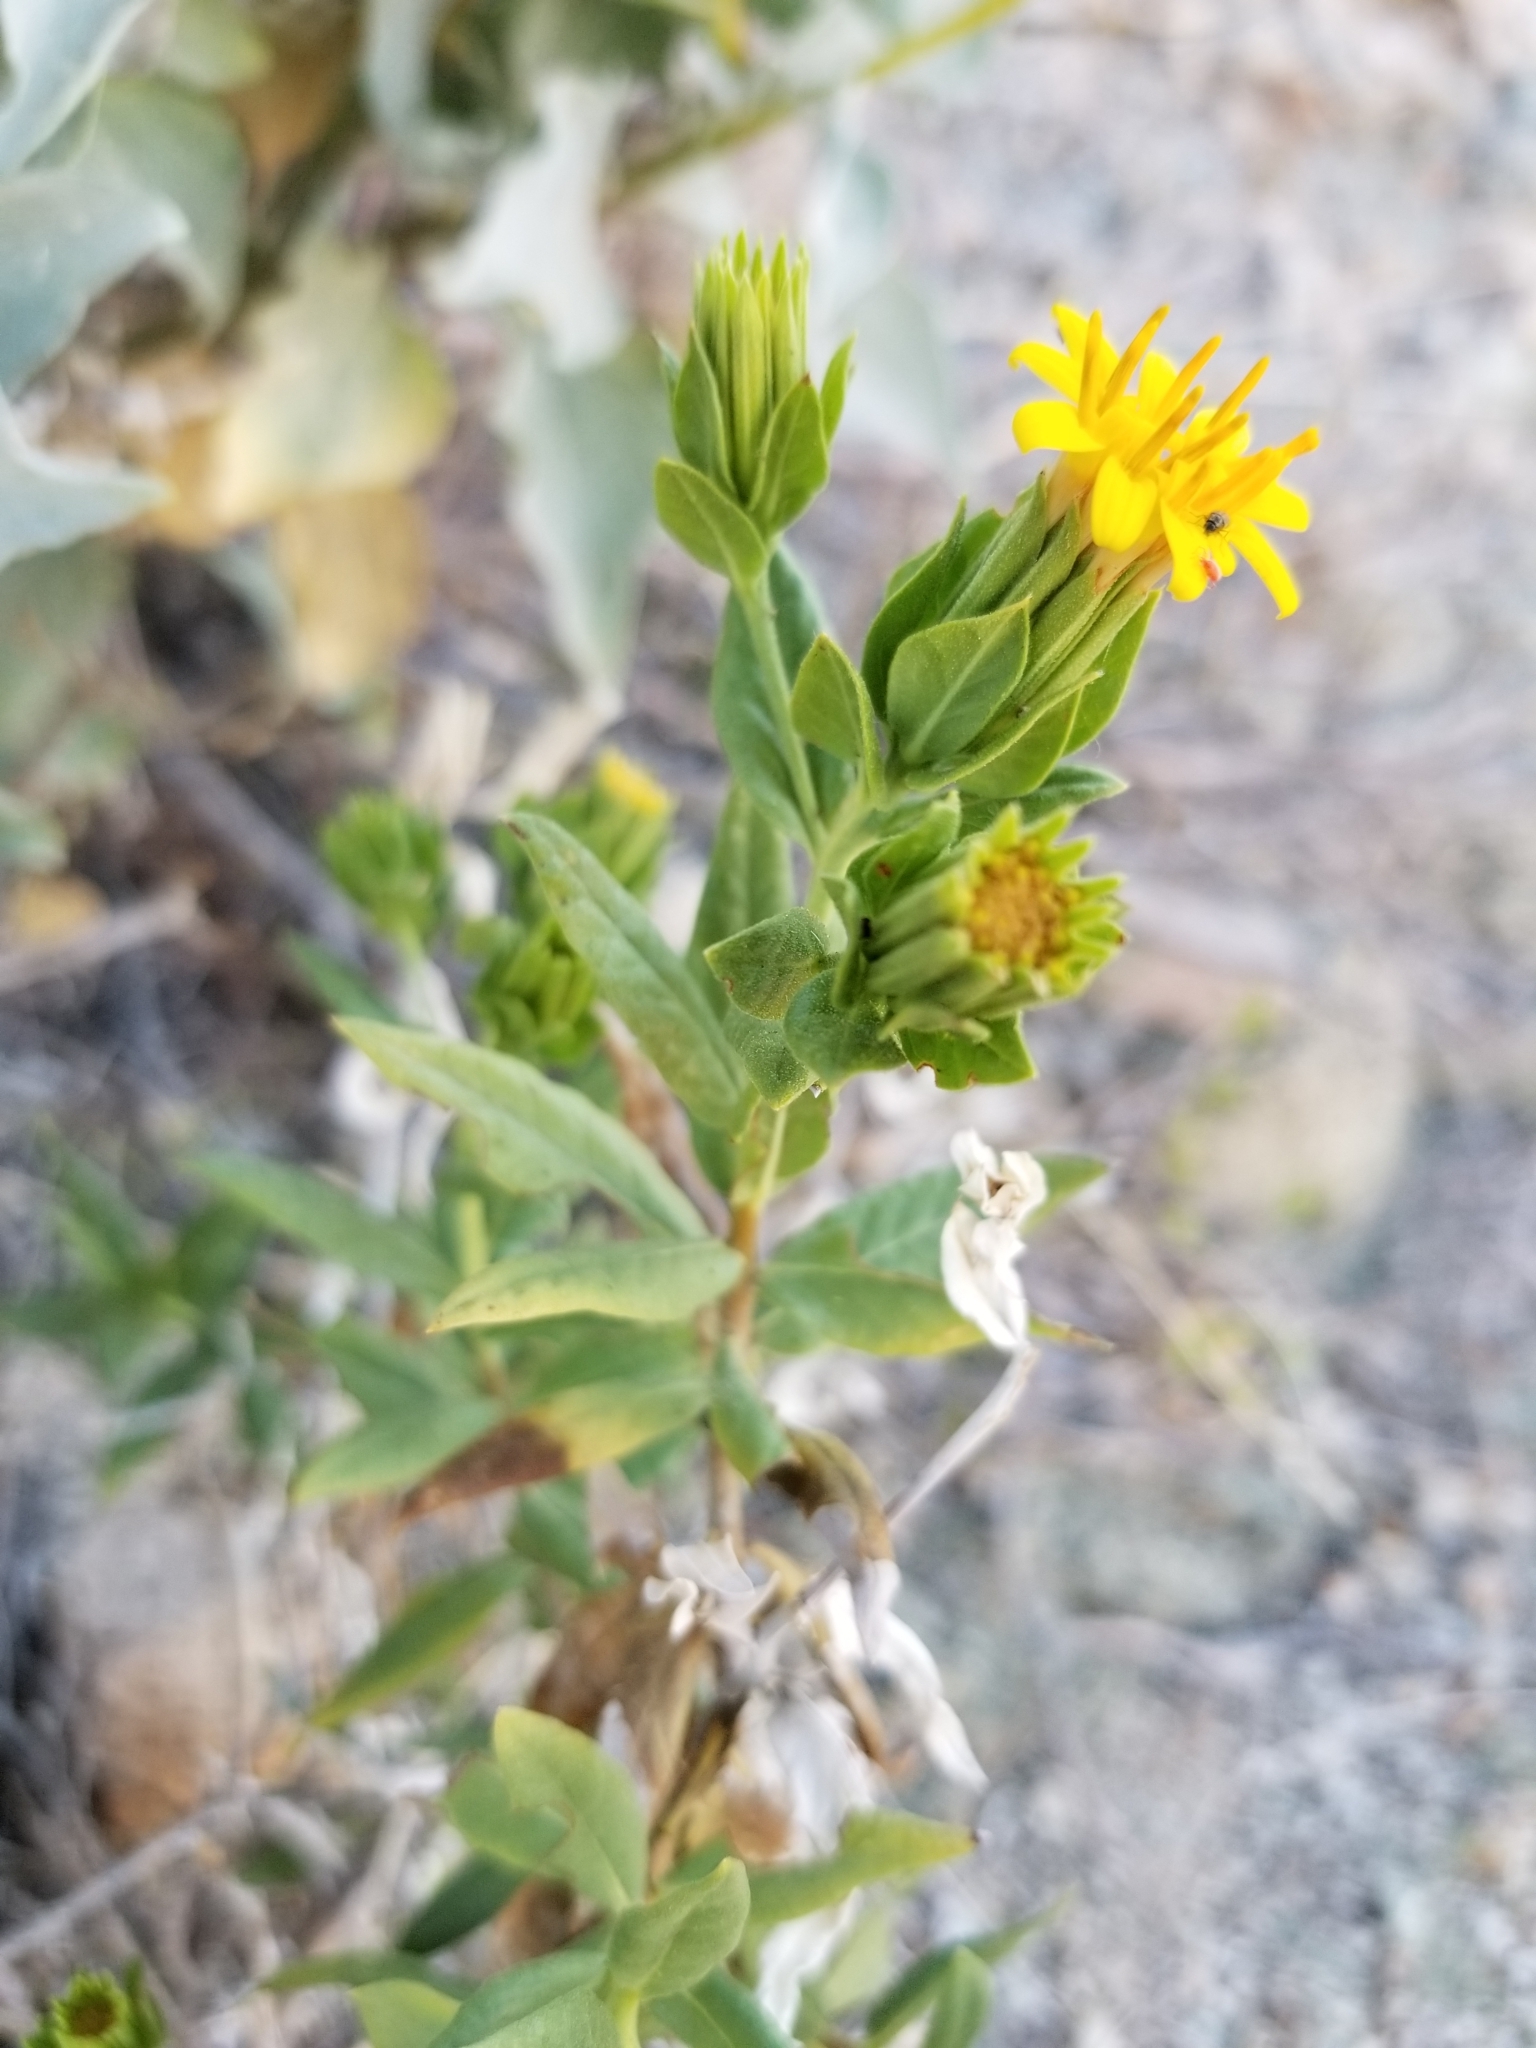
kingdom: Plantae
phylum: Tracheophyta
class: Magnoliopsida
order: Asterales
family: Asteraceae
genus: Trixis
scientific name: Trixis californica
